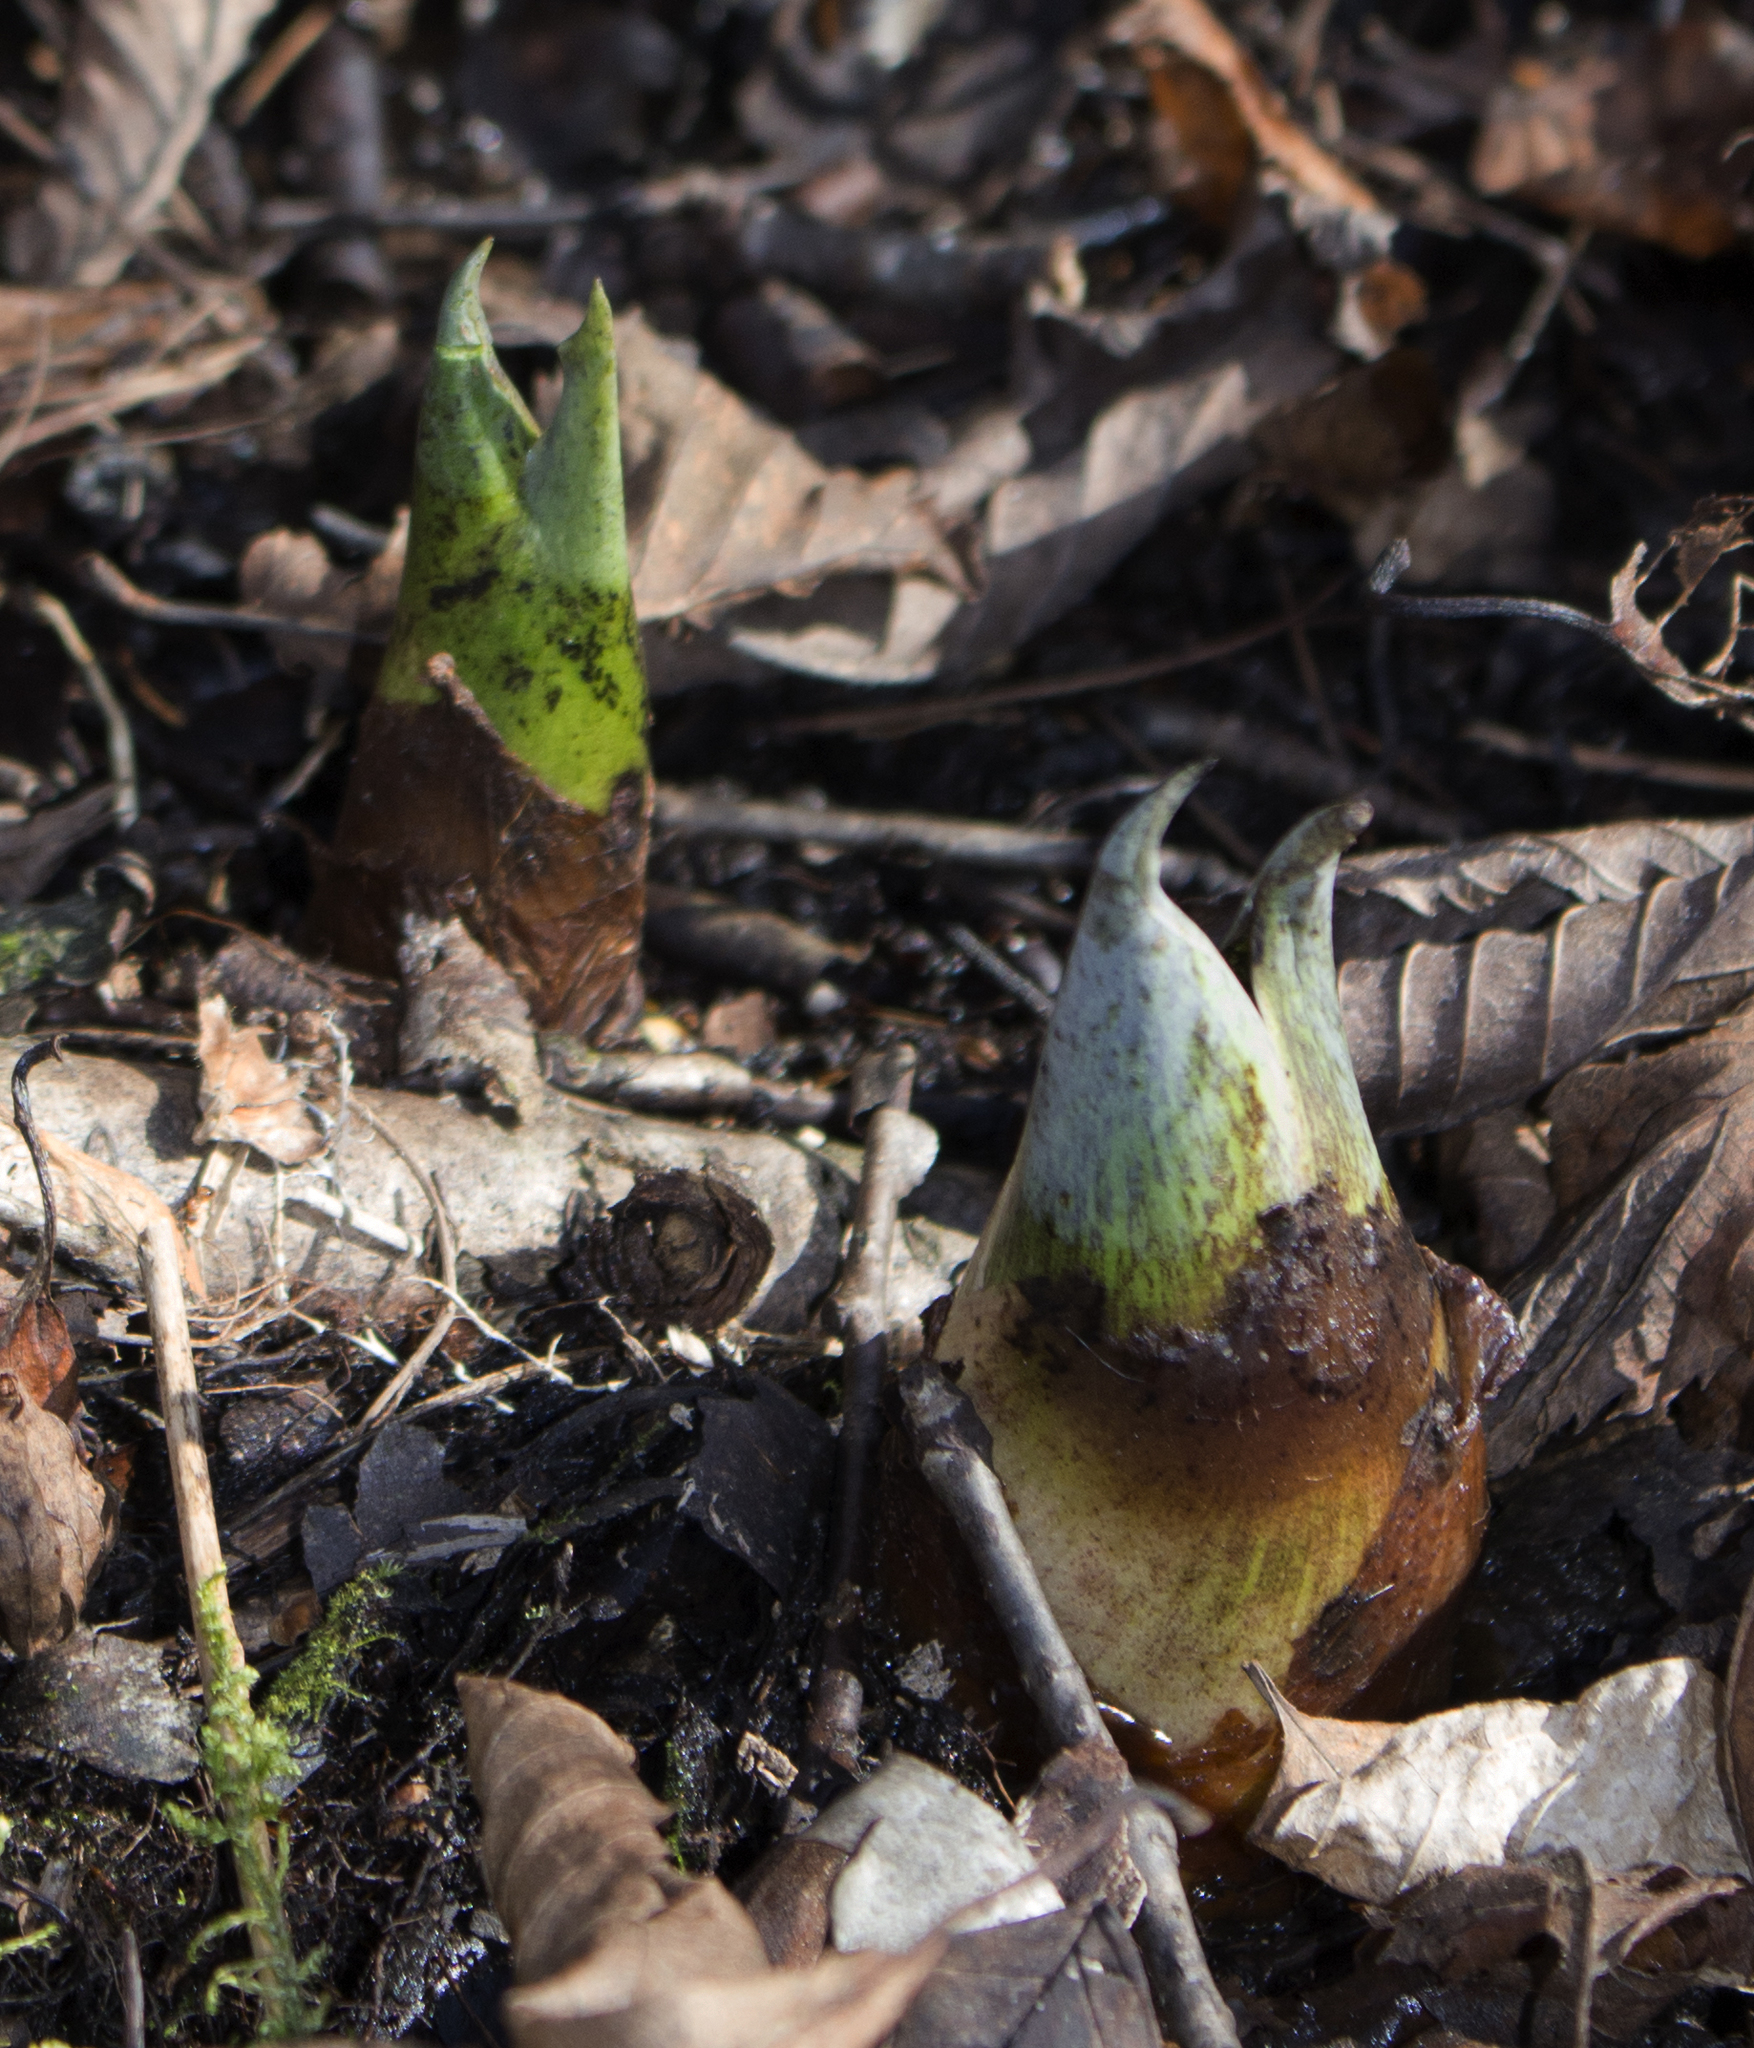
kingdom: Plantae
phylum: Tracheophyta
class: Liliopsida
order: Alismatales
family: Araceae
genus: Symplocarpus
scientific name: Symplocarpus foetidus
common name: Eastern skunk cabbage
